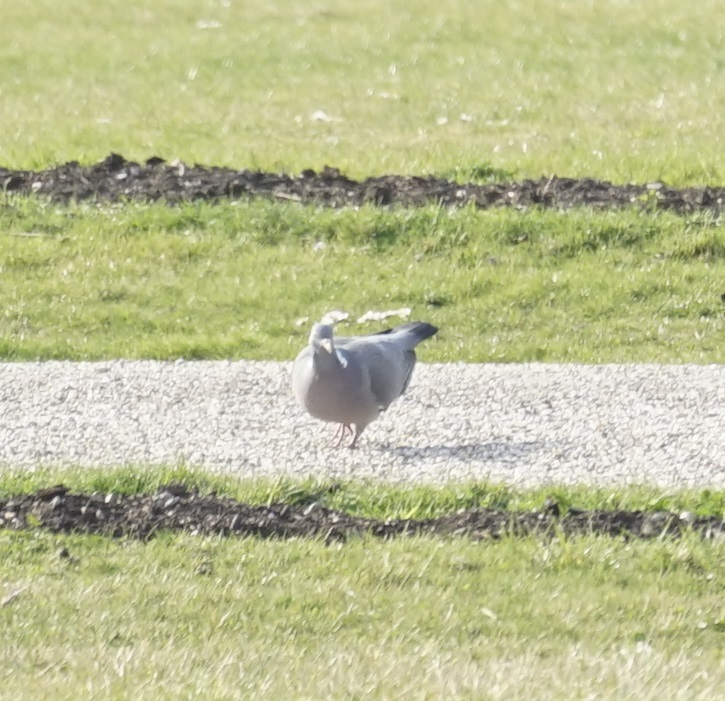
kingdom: Animalia
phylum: Chordata
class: Aves
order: Columbiformes
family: Columbidae
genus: Columba
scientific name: Columba palumbus
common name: Common wood pigeon
